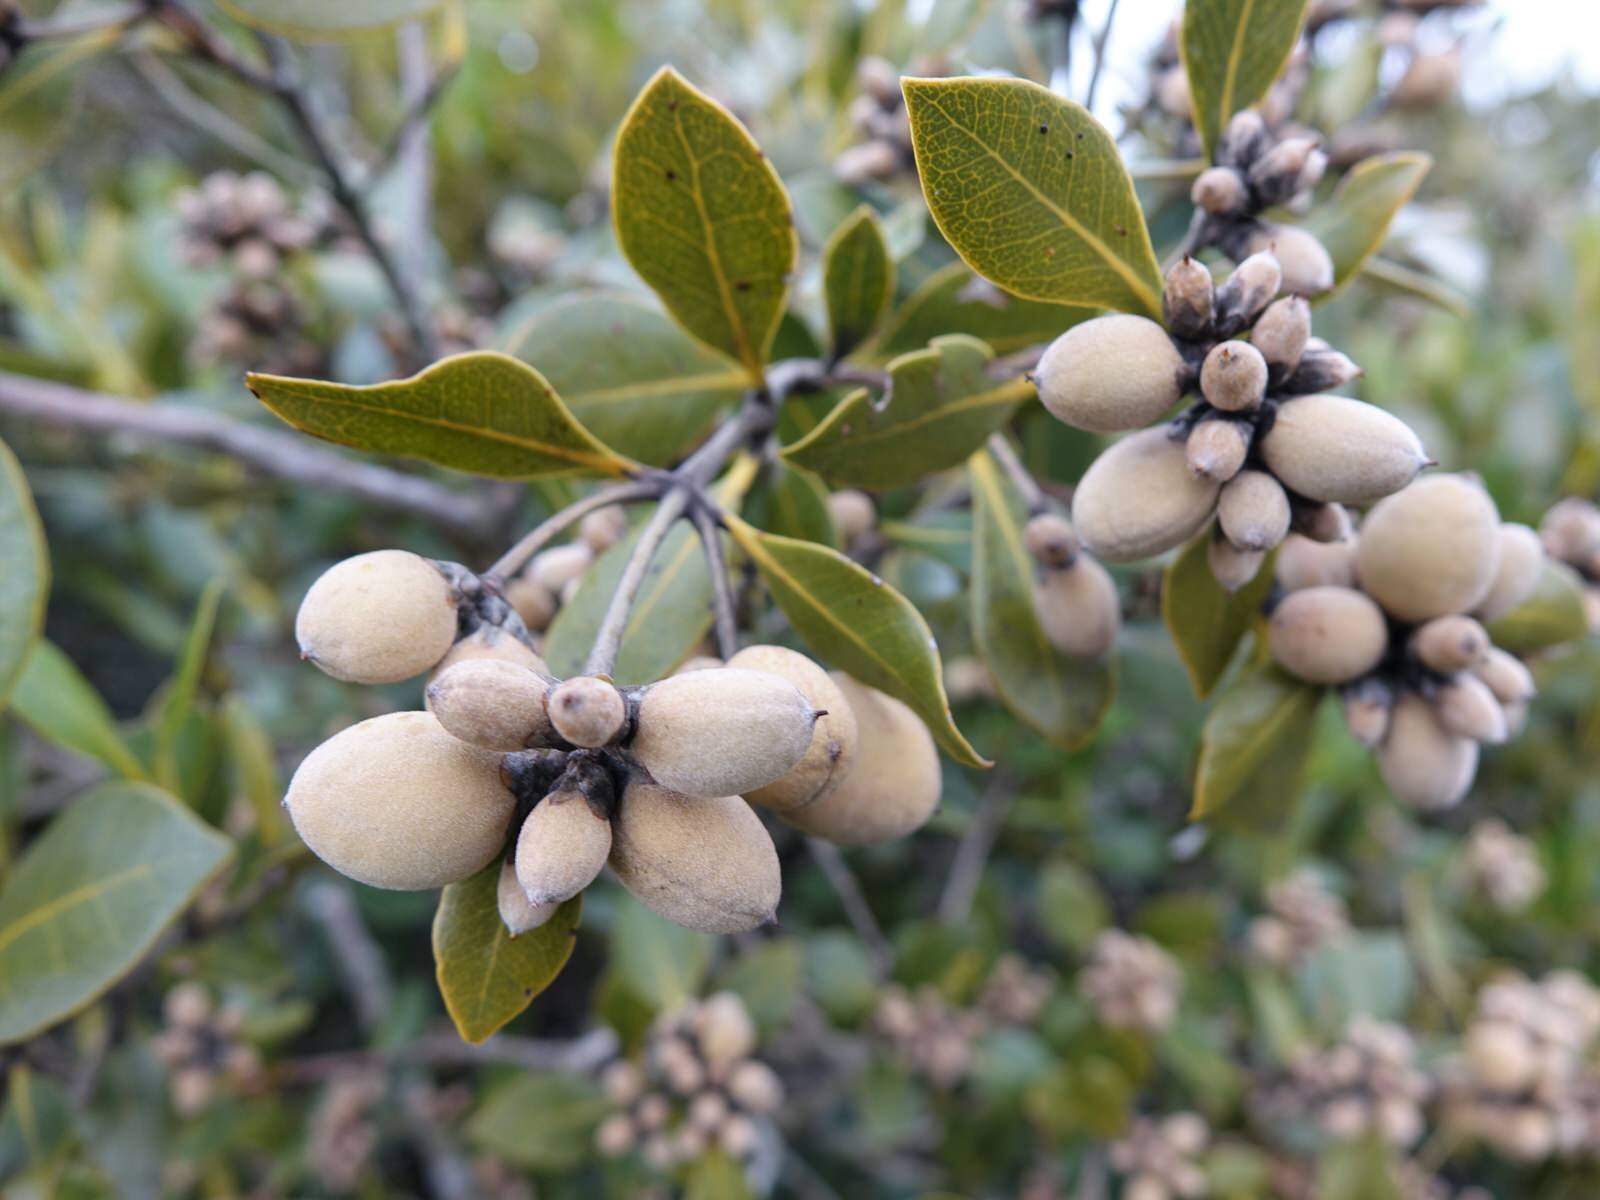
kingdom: Plantae
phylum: Tracheophyta
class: Magnoliopsida
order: Lamiales
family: Acanthaceae
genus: Avicennia
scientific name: Avicennia marina
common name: Gray mangrove
